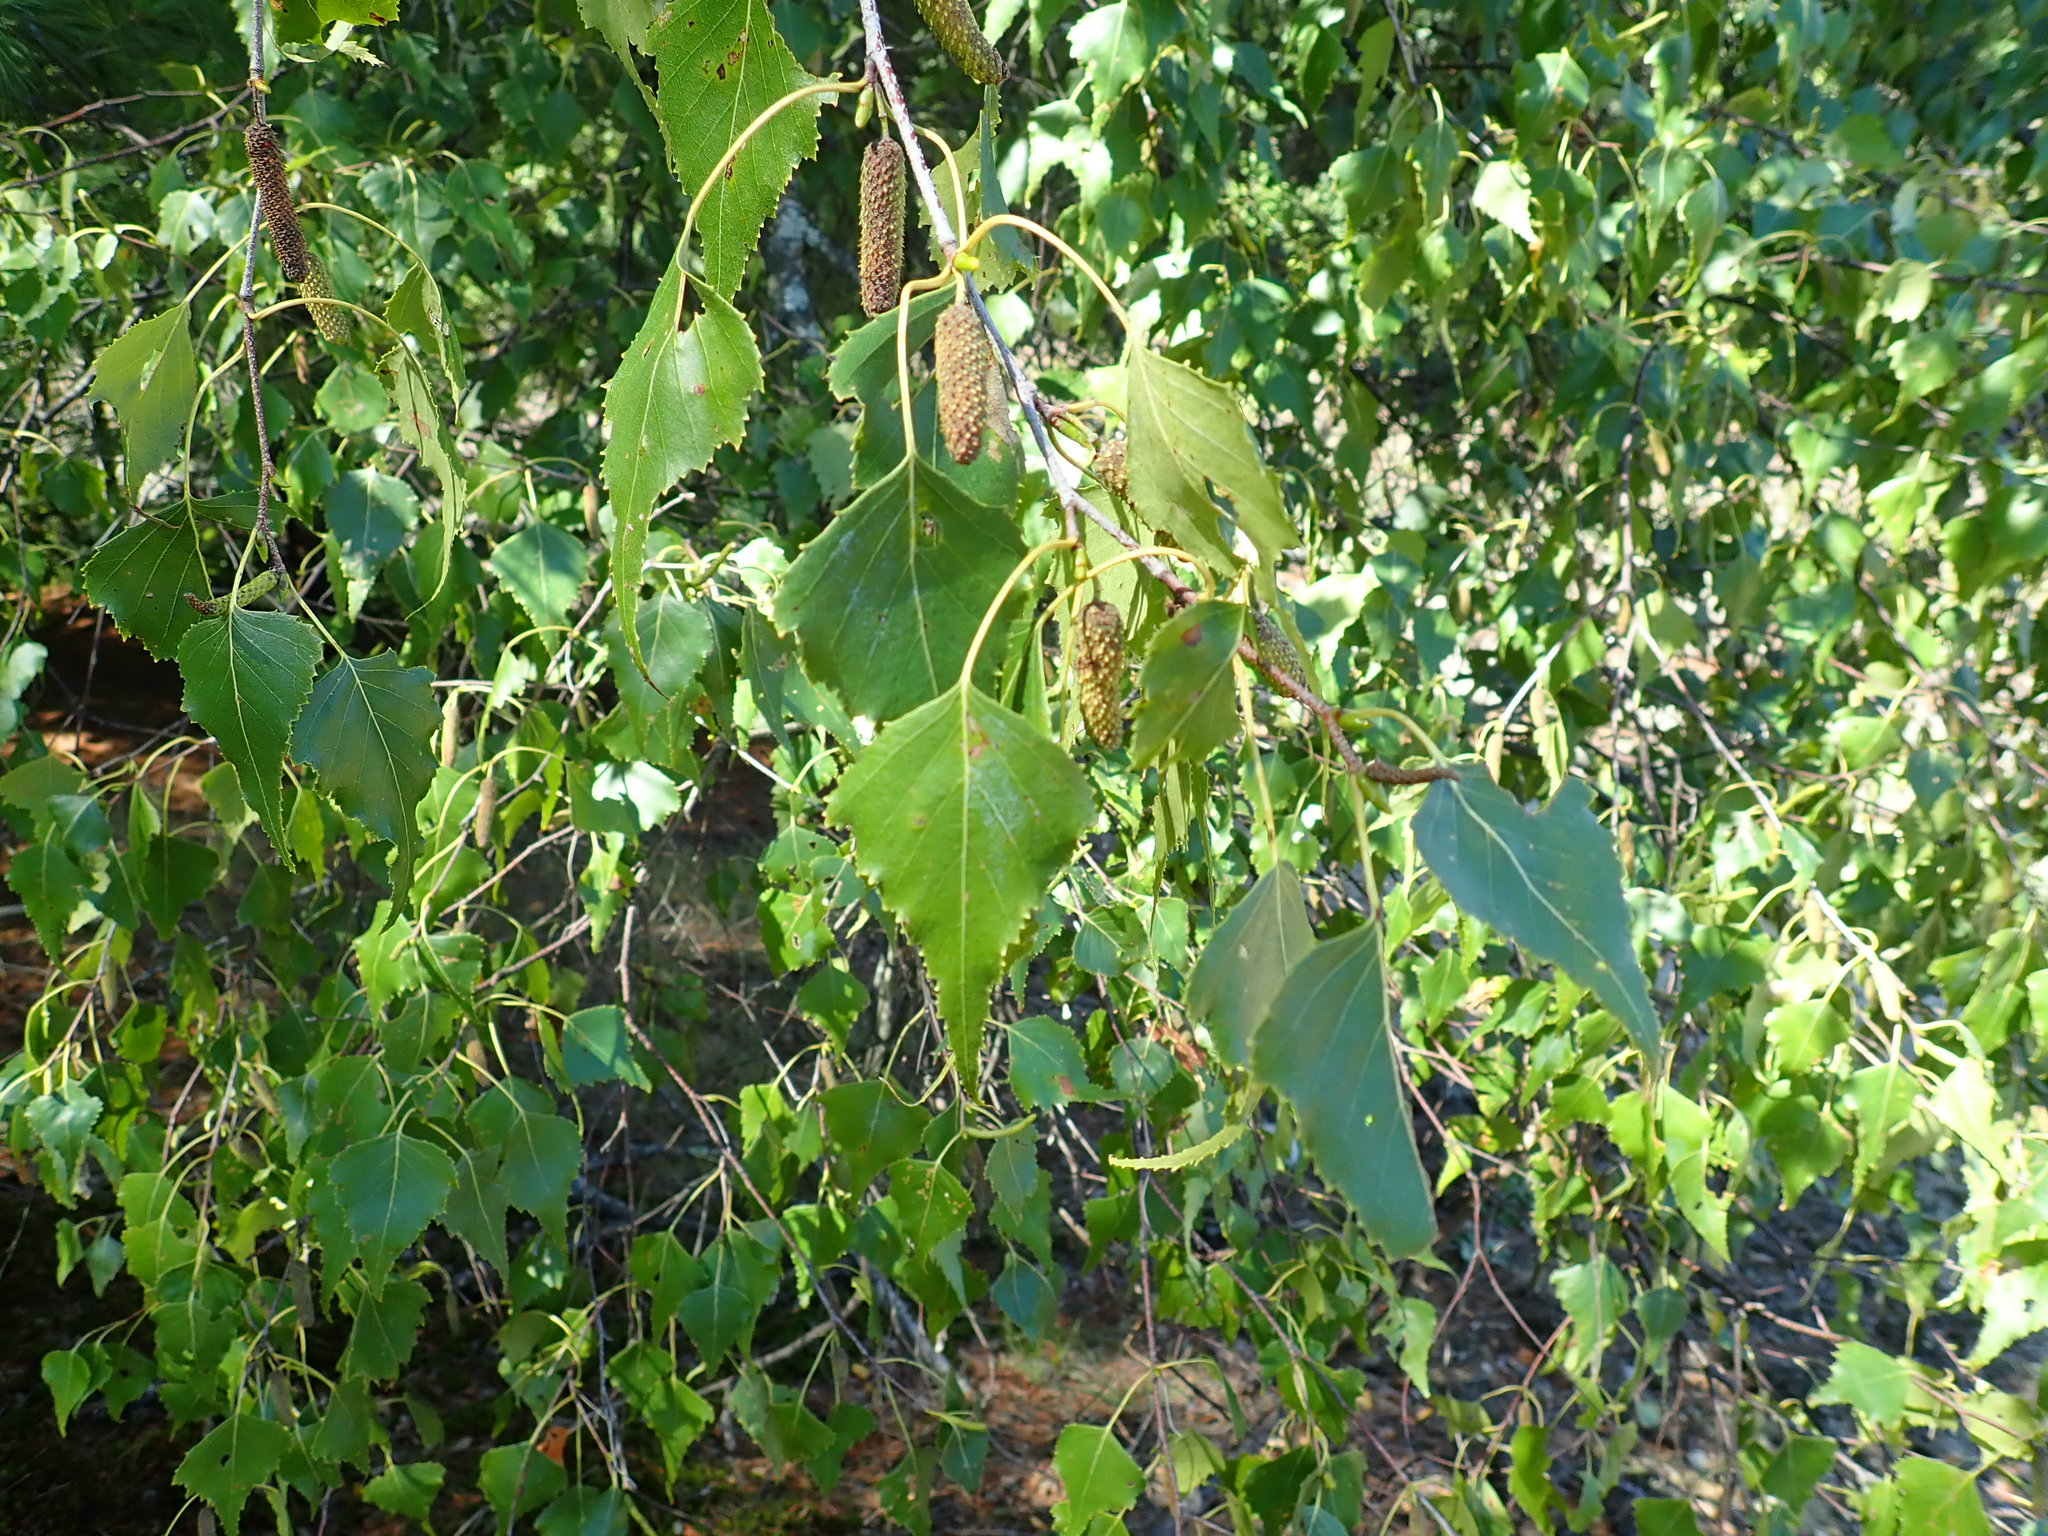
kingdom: Plantae
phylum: Tracheophyta
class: Magnoliopsida
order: Fagales
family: Betulaceae
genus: Betula
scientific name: Betula populifolia
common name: Fire birch
